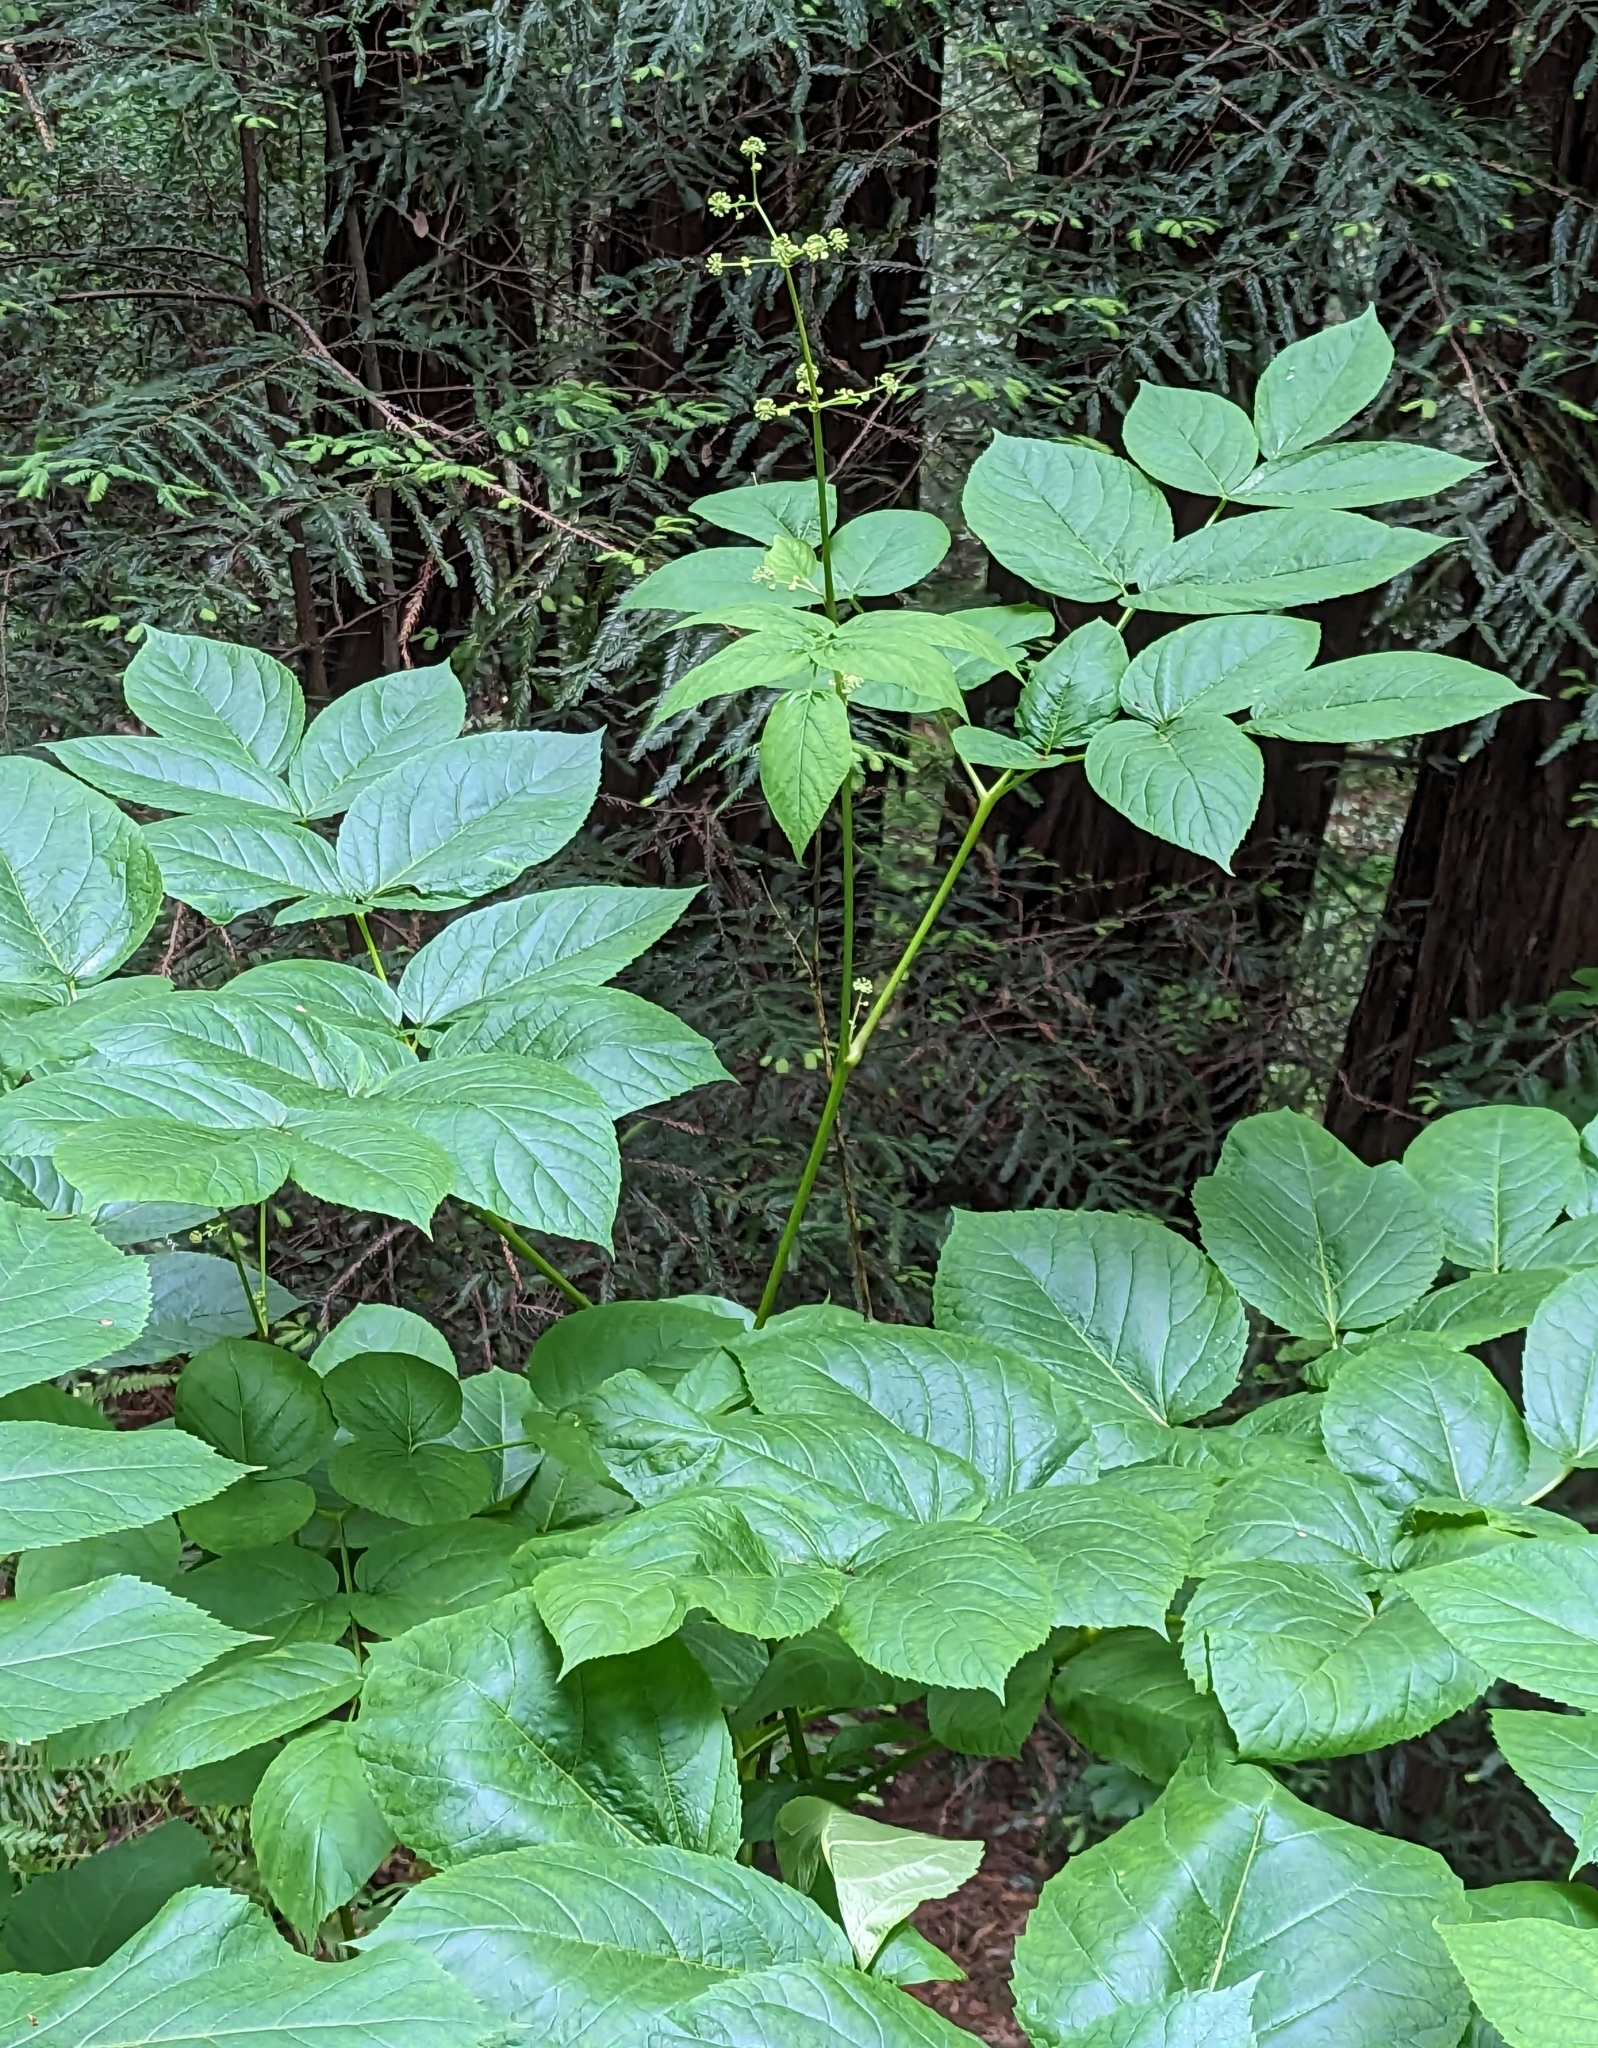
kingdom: Plantae
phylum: Tracheophyta
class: Magnoliopsida
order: Apiales
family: Araliaceae
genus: Aralia
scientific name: Aralia californica
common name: California-ginseng
